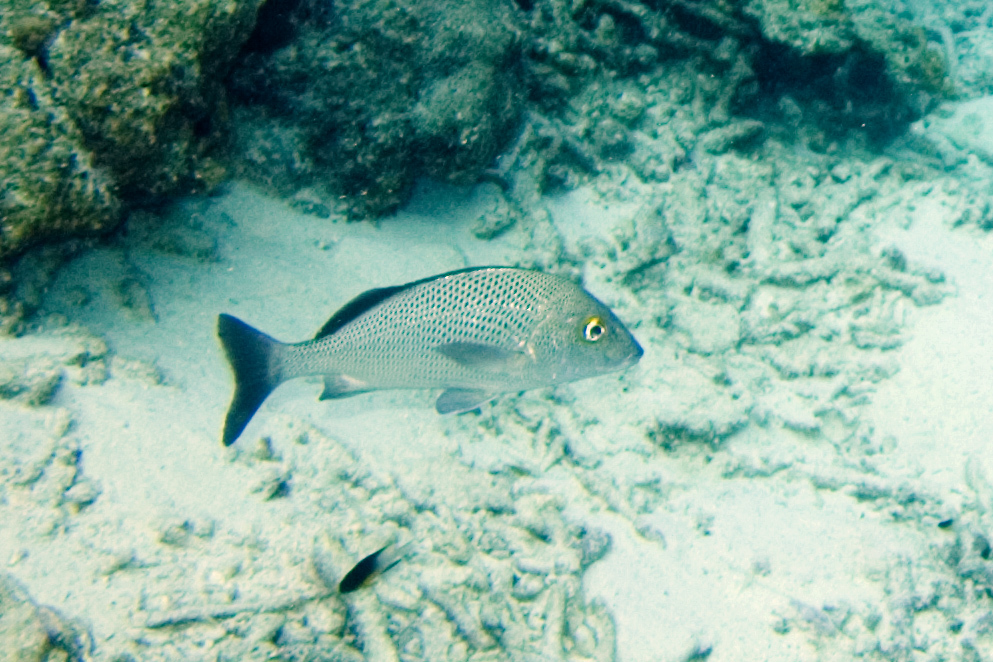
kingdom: Animalia
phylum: Chordata
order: Perciformes
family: Haemulidae
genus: Haemulon
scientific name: Haemulon parra
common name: Sailor's choice
